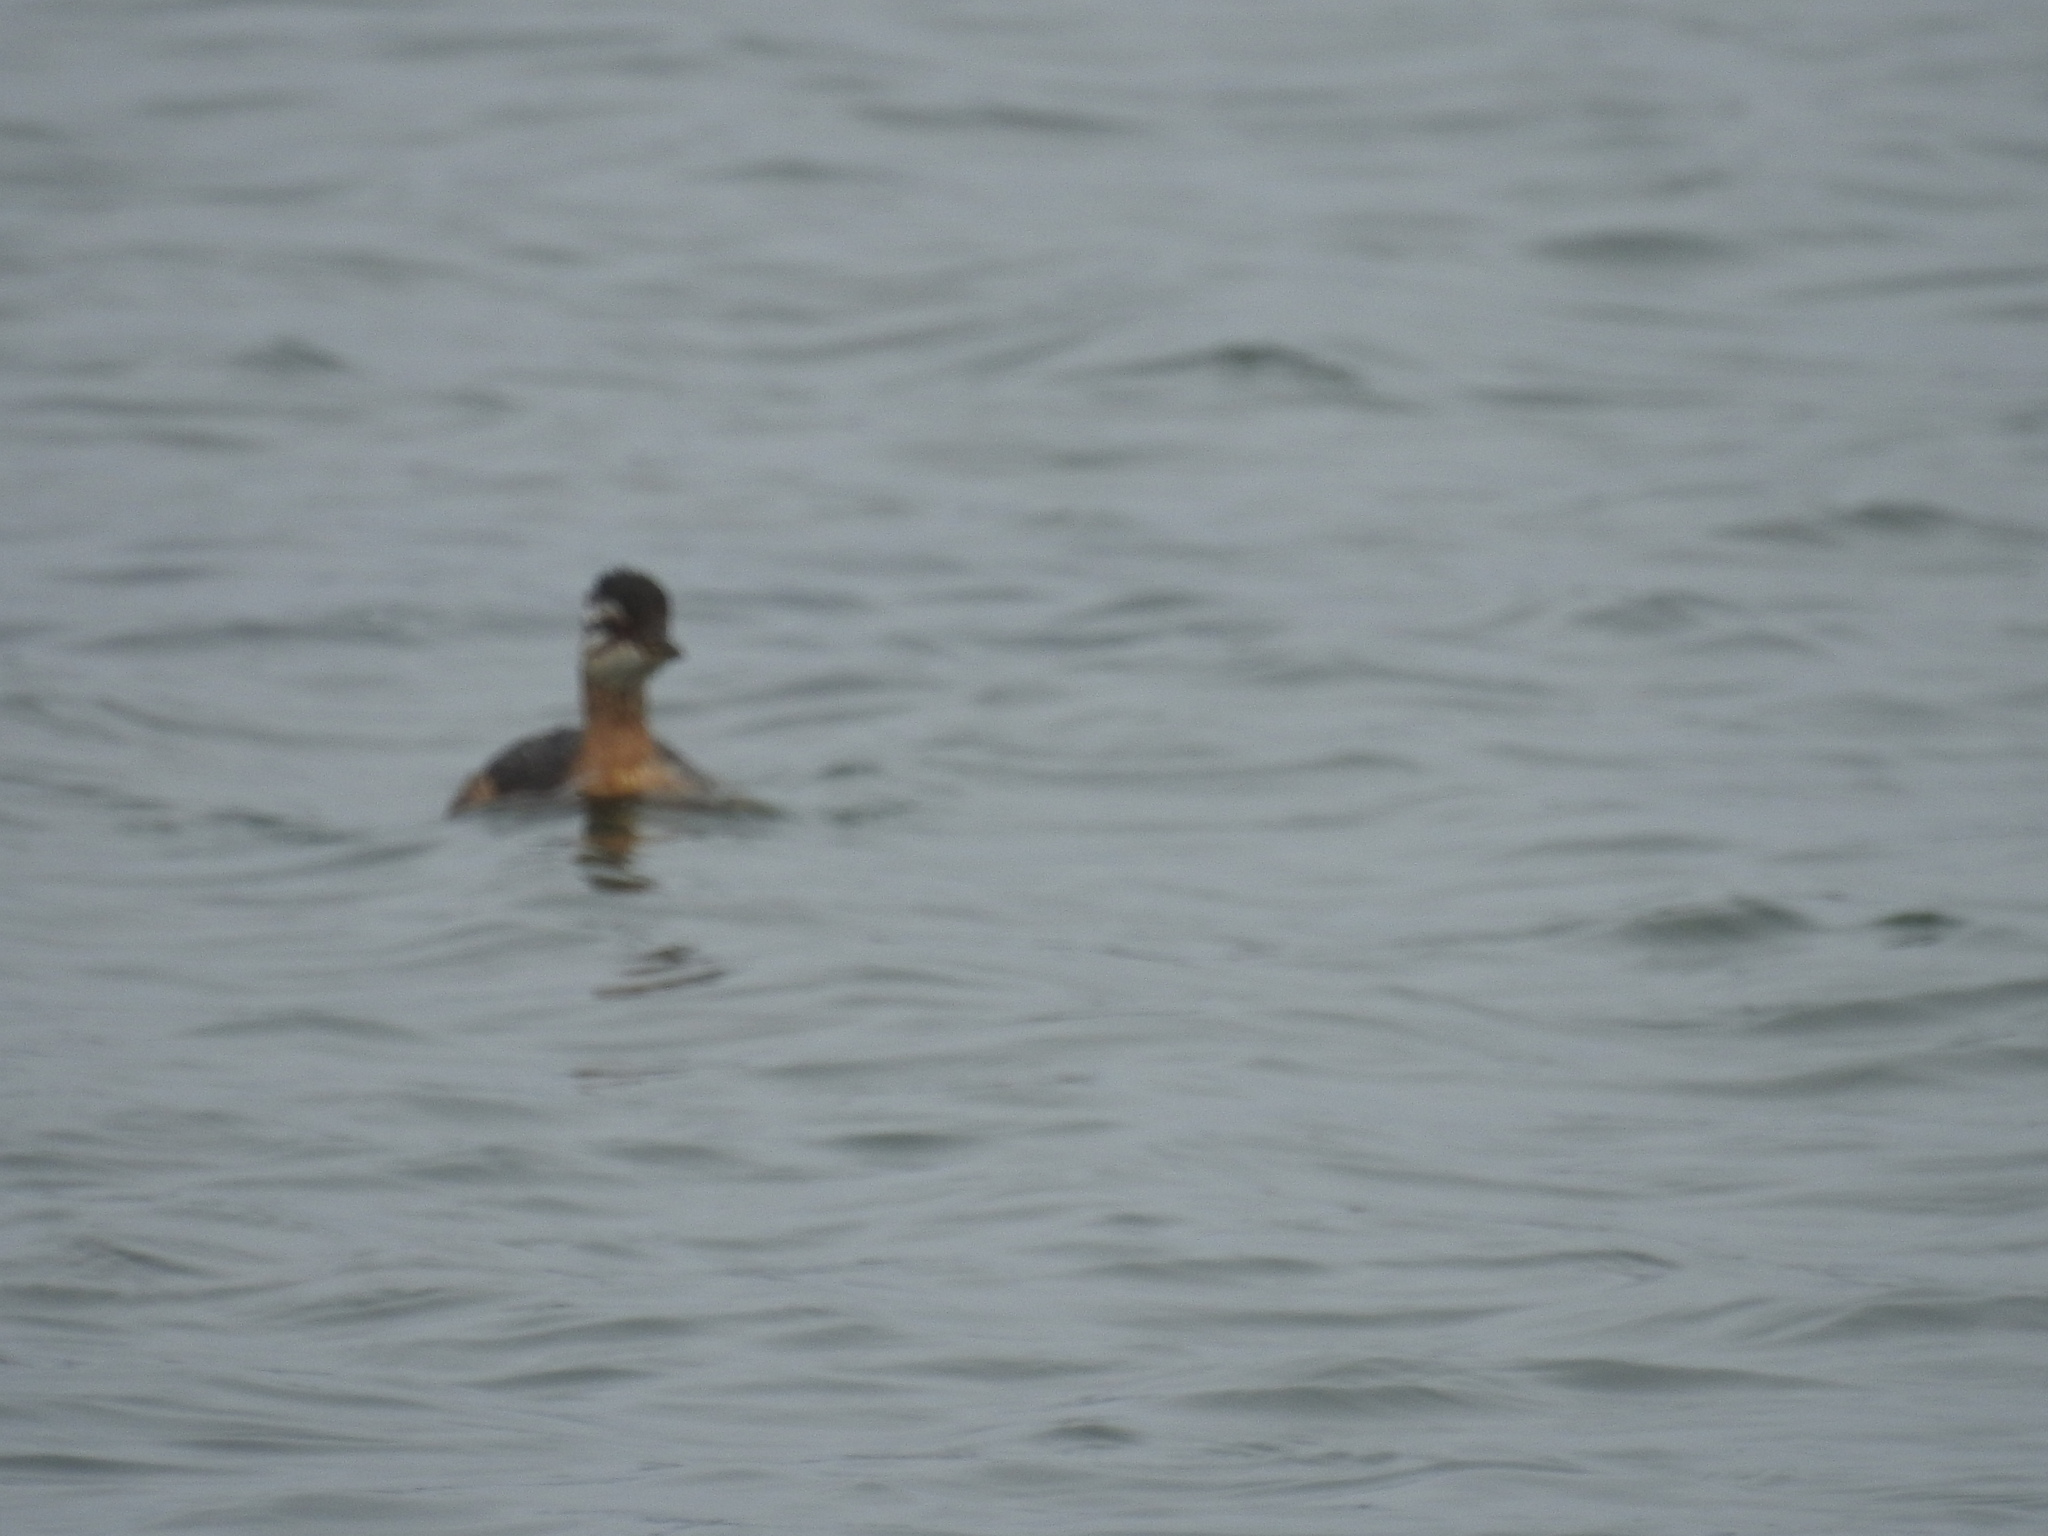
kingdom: Animalia
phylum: Chordata
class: Aves
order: Podicipediformes
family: Podicipedidae
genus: Rollandia
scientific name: Rollandia rolland
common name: White-tufted grebe
